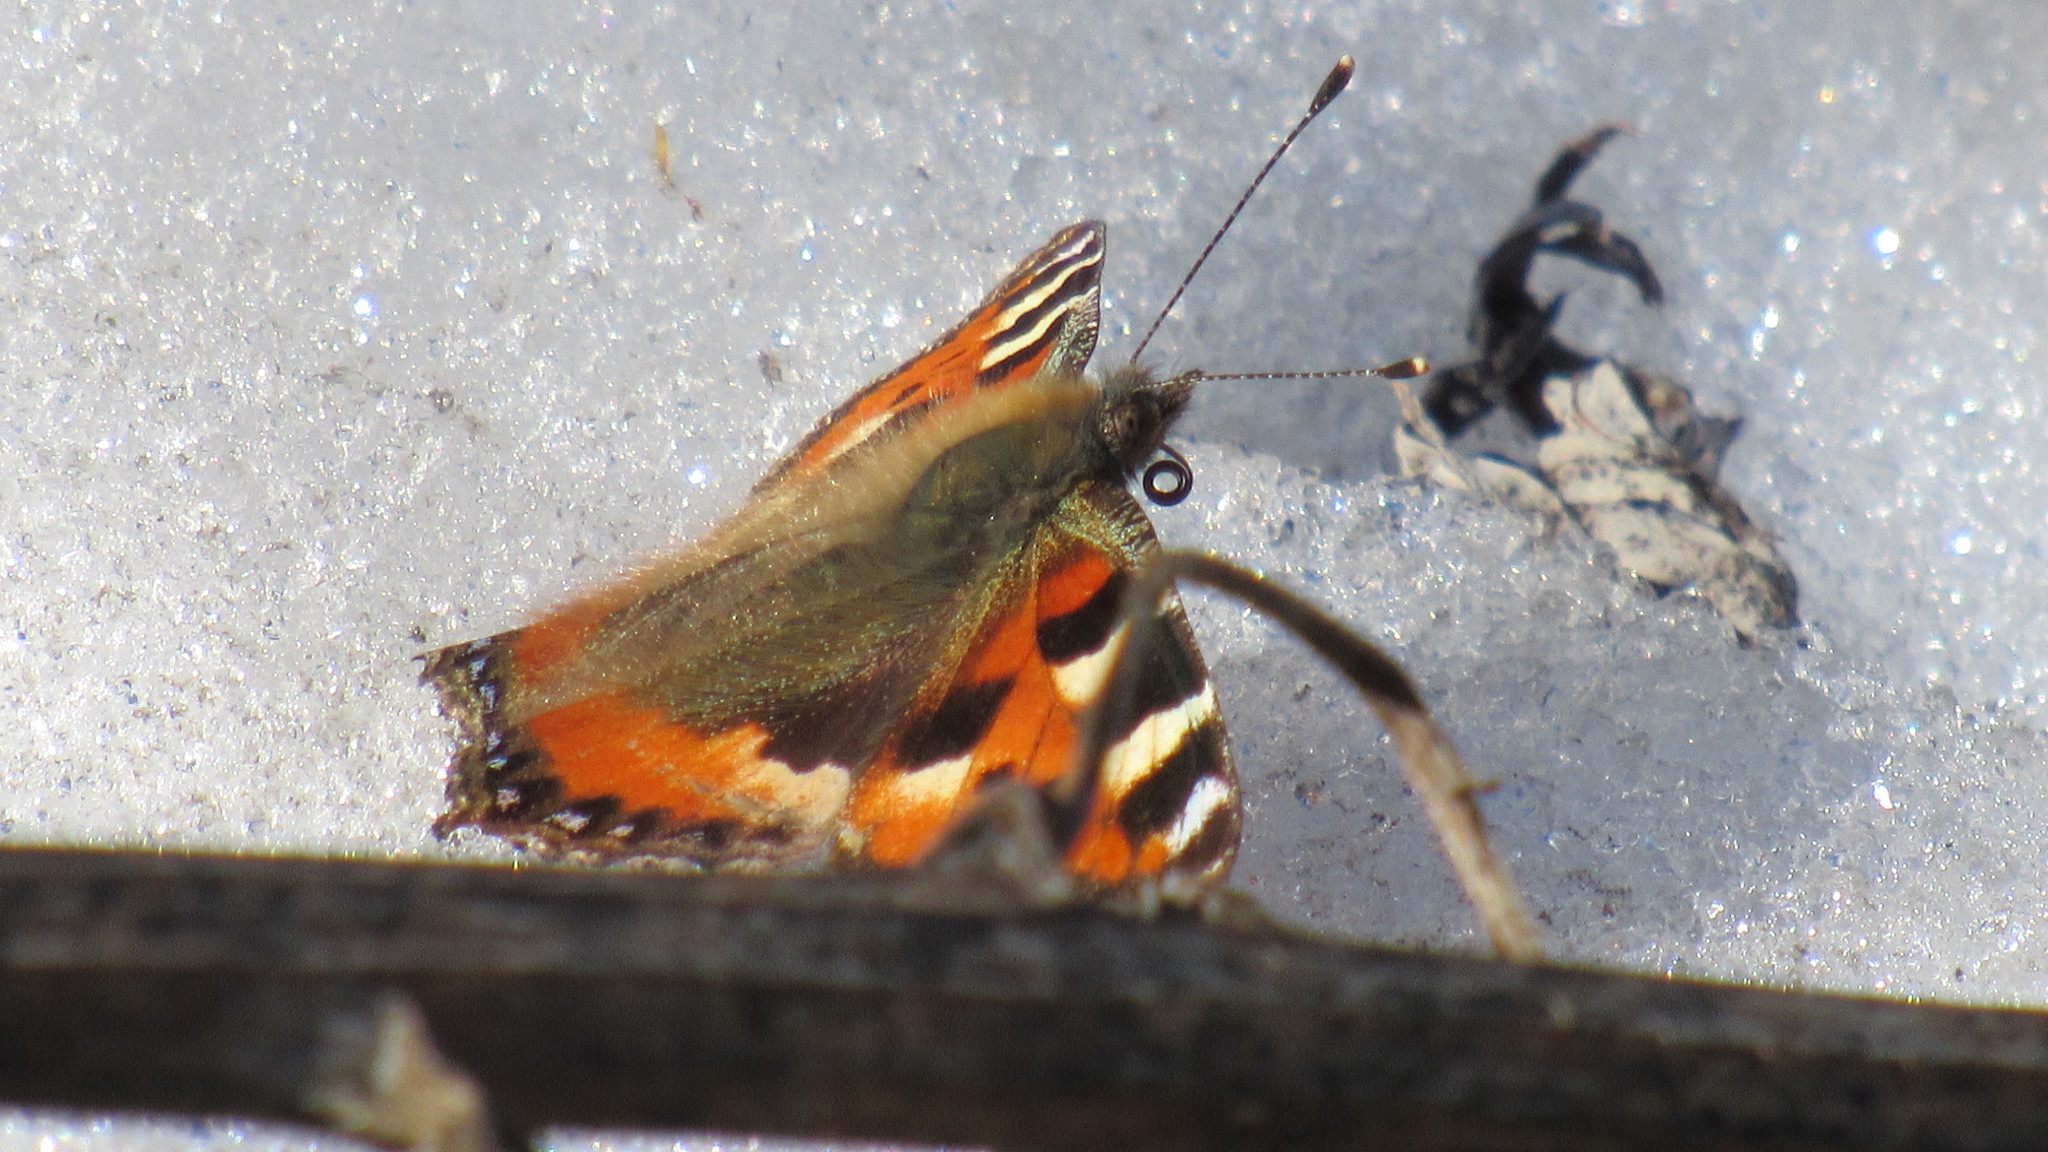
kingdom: Animalia
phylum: Arthropoda
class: Insecta
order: Lepidoptera
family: Nymphalidae
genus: Aglais
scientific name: Aglais urticae
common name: Small tortoiseshell
